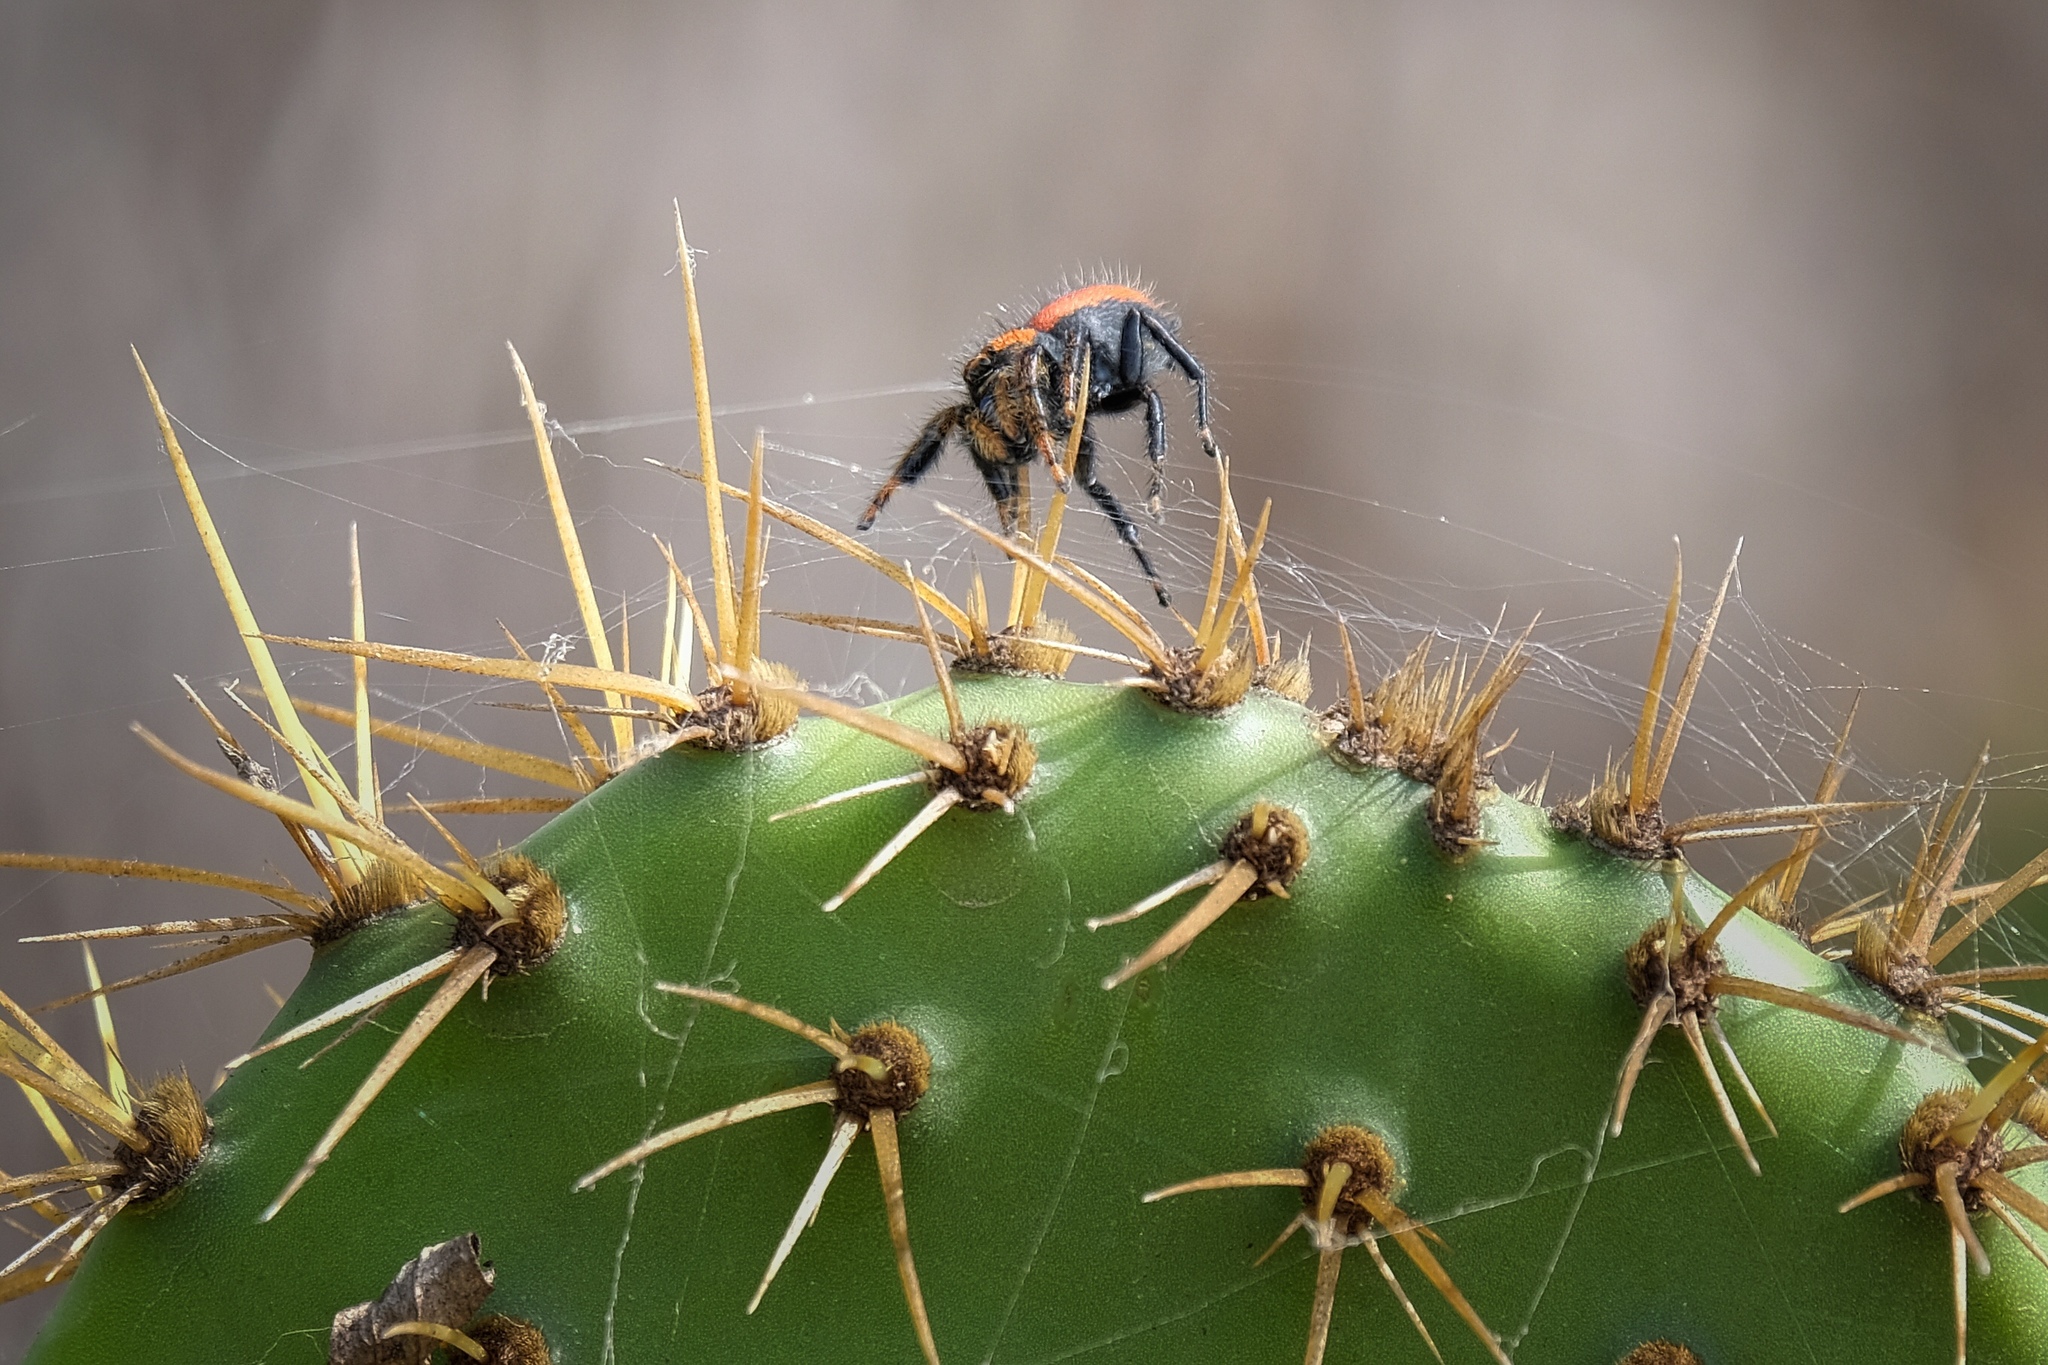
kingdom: Animalia
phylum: Arthropoda
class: Arachnida
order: Araneae
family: Salticidae
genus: Phidippus
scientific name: Phidippus nikites
